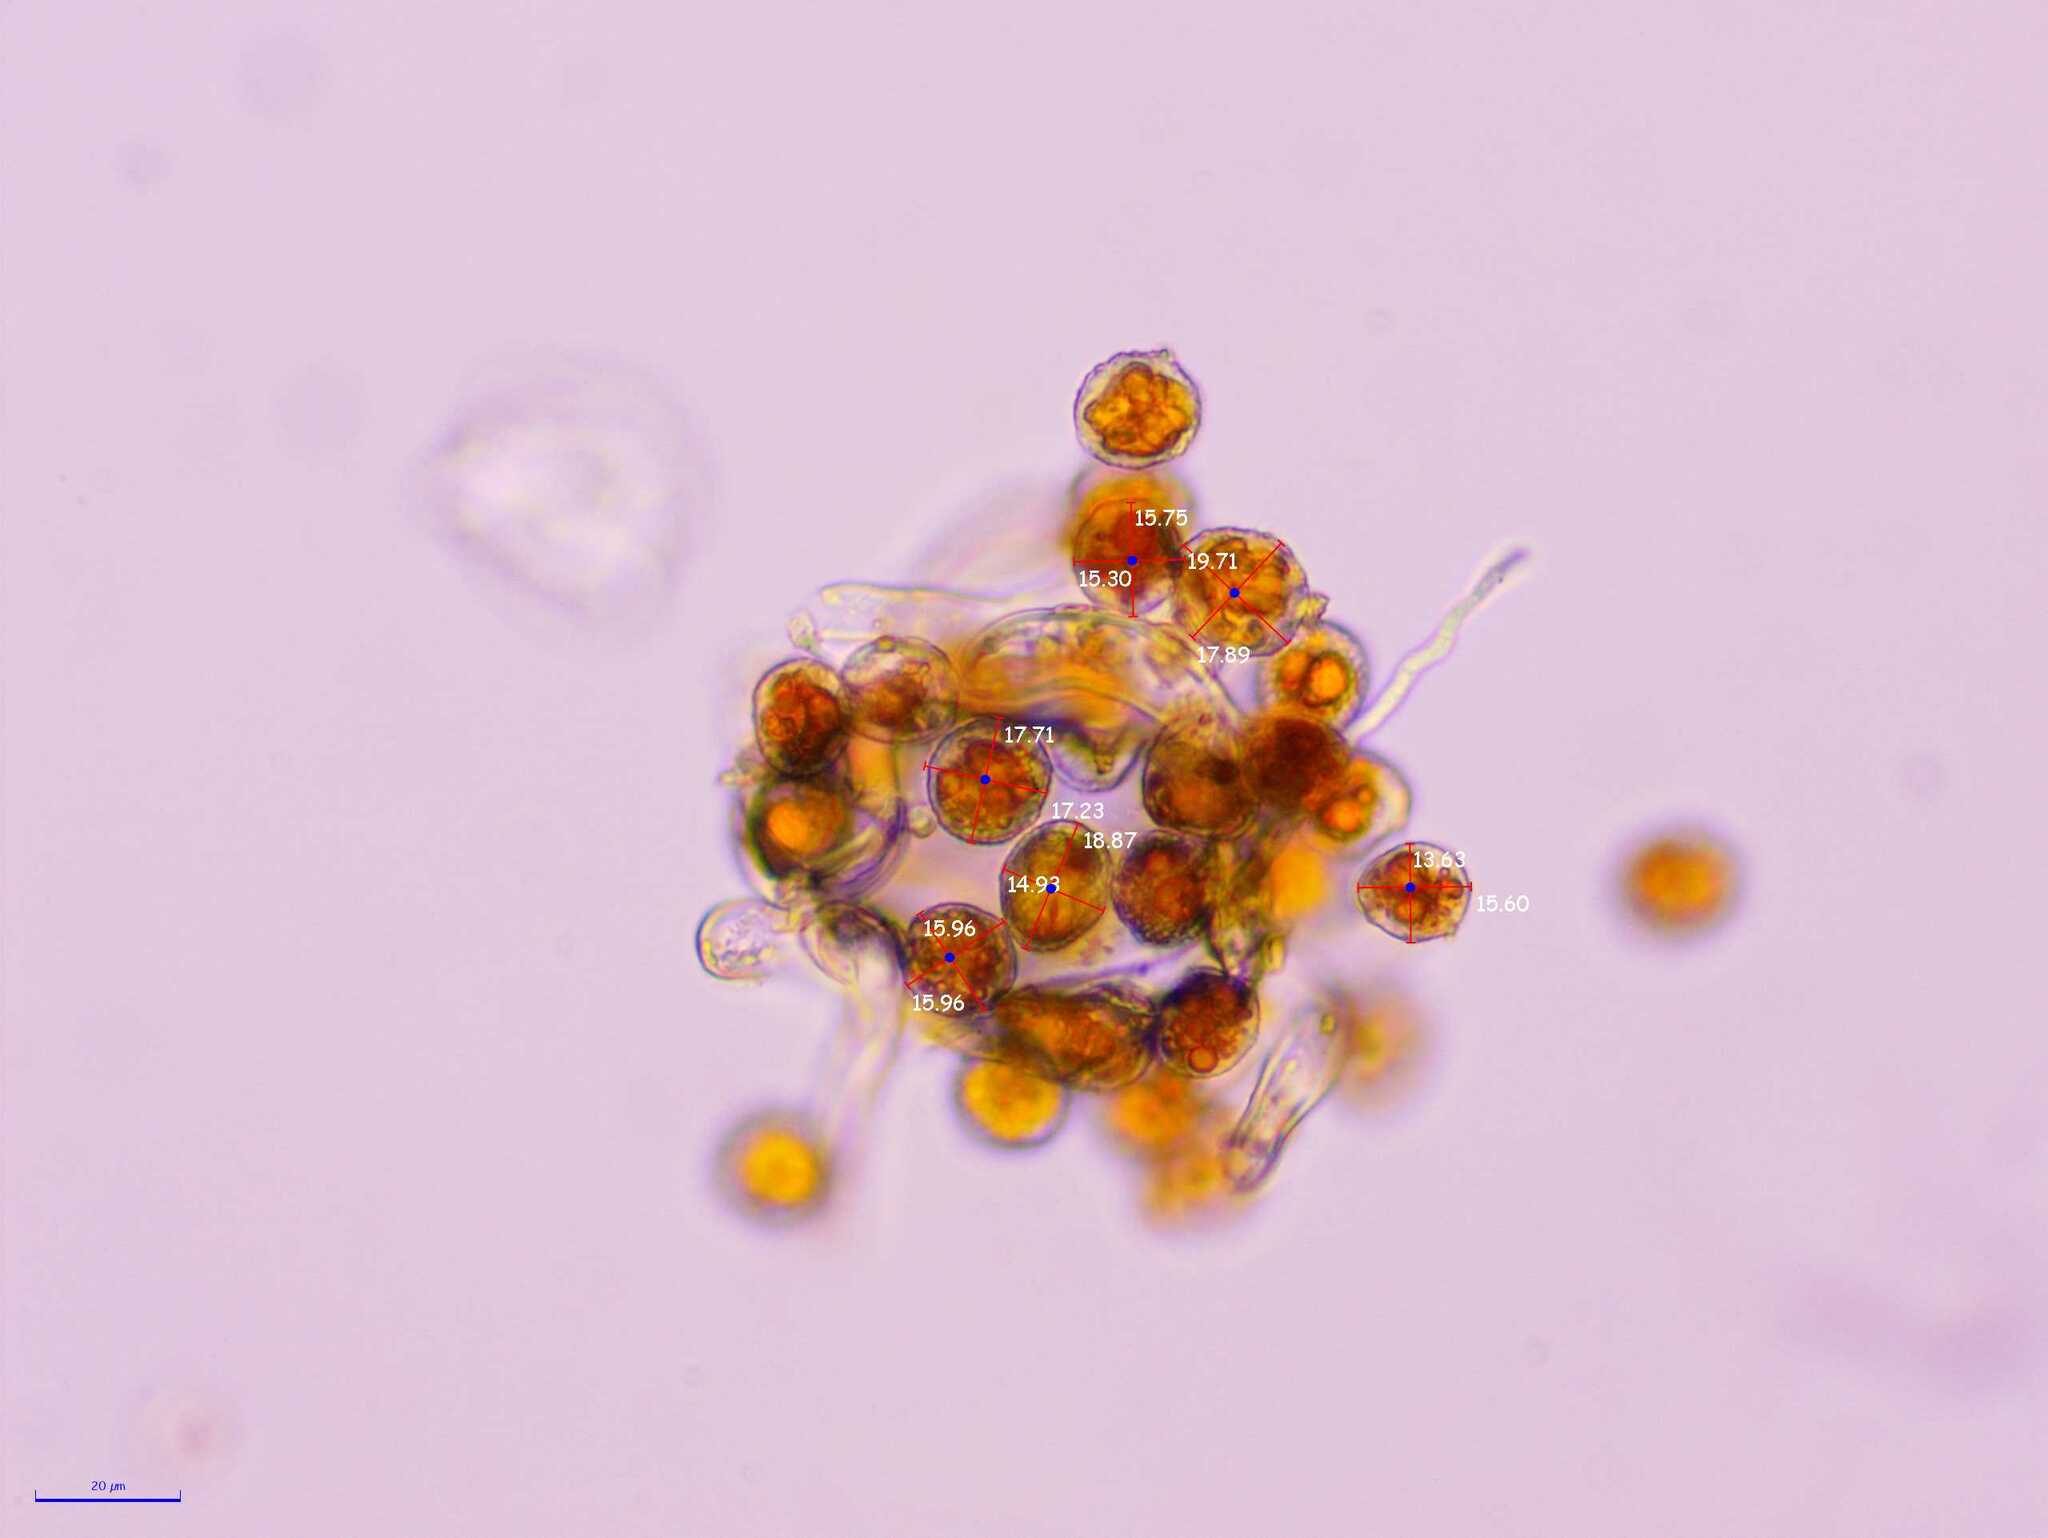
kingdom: Fungi
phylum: Basidiomycota
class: Pucciniomycetes
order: Pucciniales
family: Phragmidiaceae
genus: Phragmidium
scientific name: Phragmidium sanguisorbae
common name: Salad burnet rust
